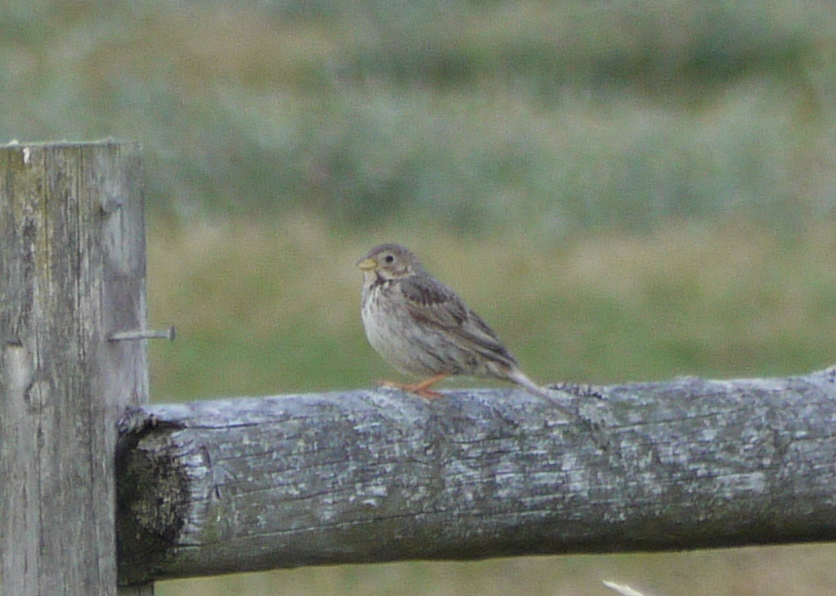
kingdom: Animalia
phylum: Chordata
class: Aves
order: Passeriformes
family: Emberizidae
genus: Emberiza
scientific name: Emberiza calandra
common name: Corn bunting
